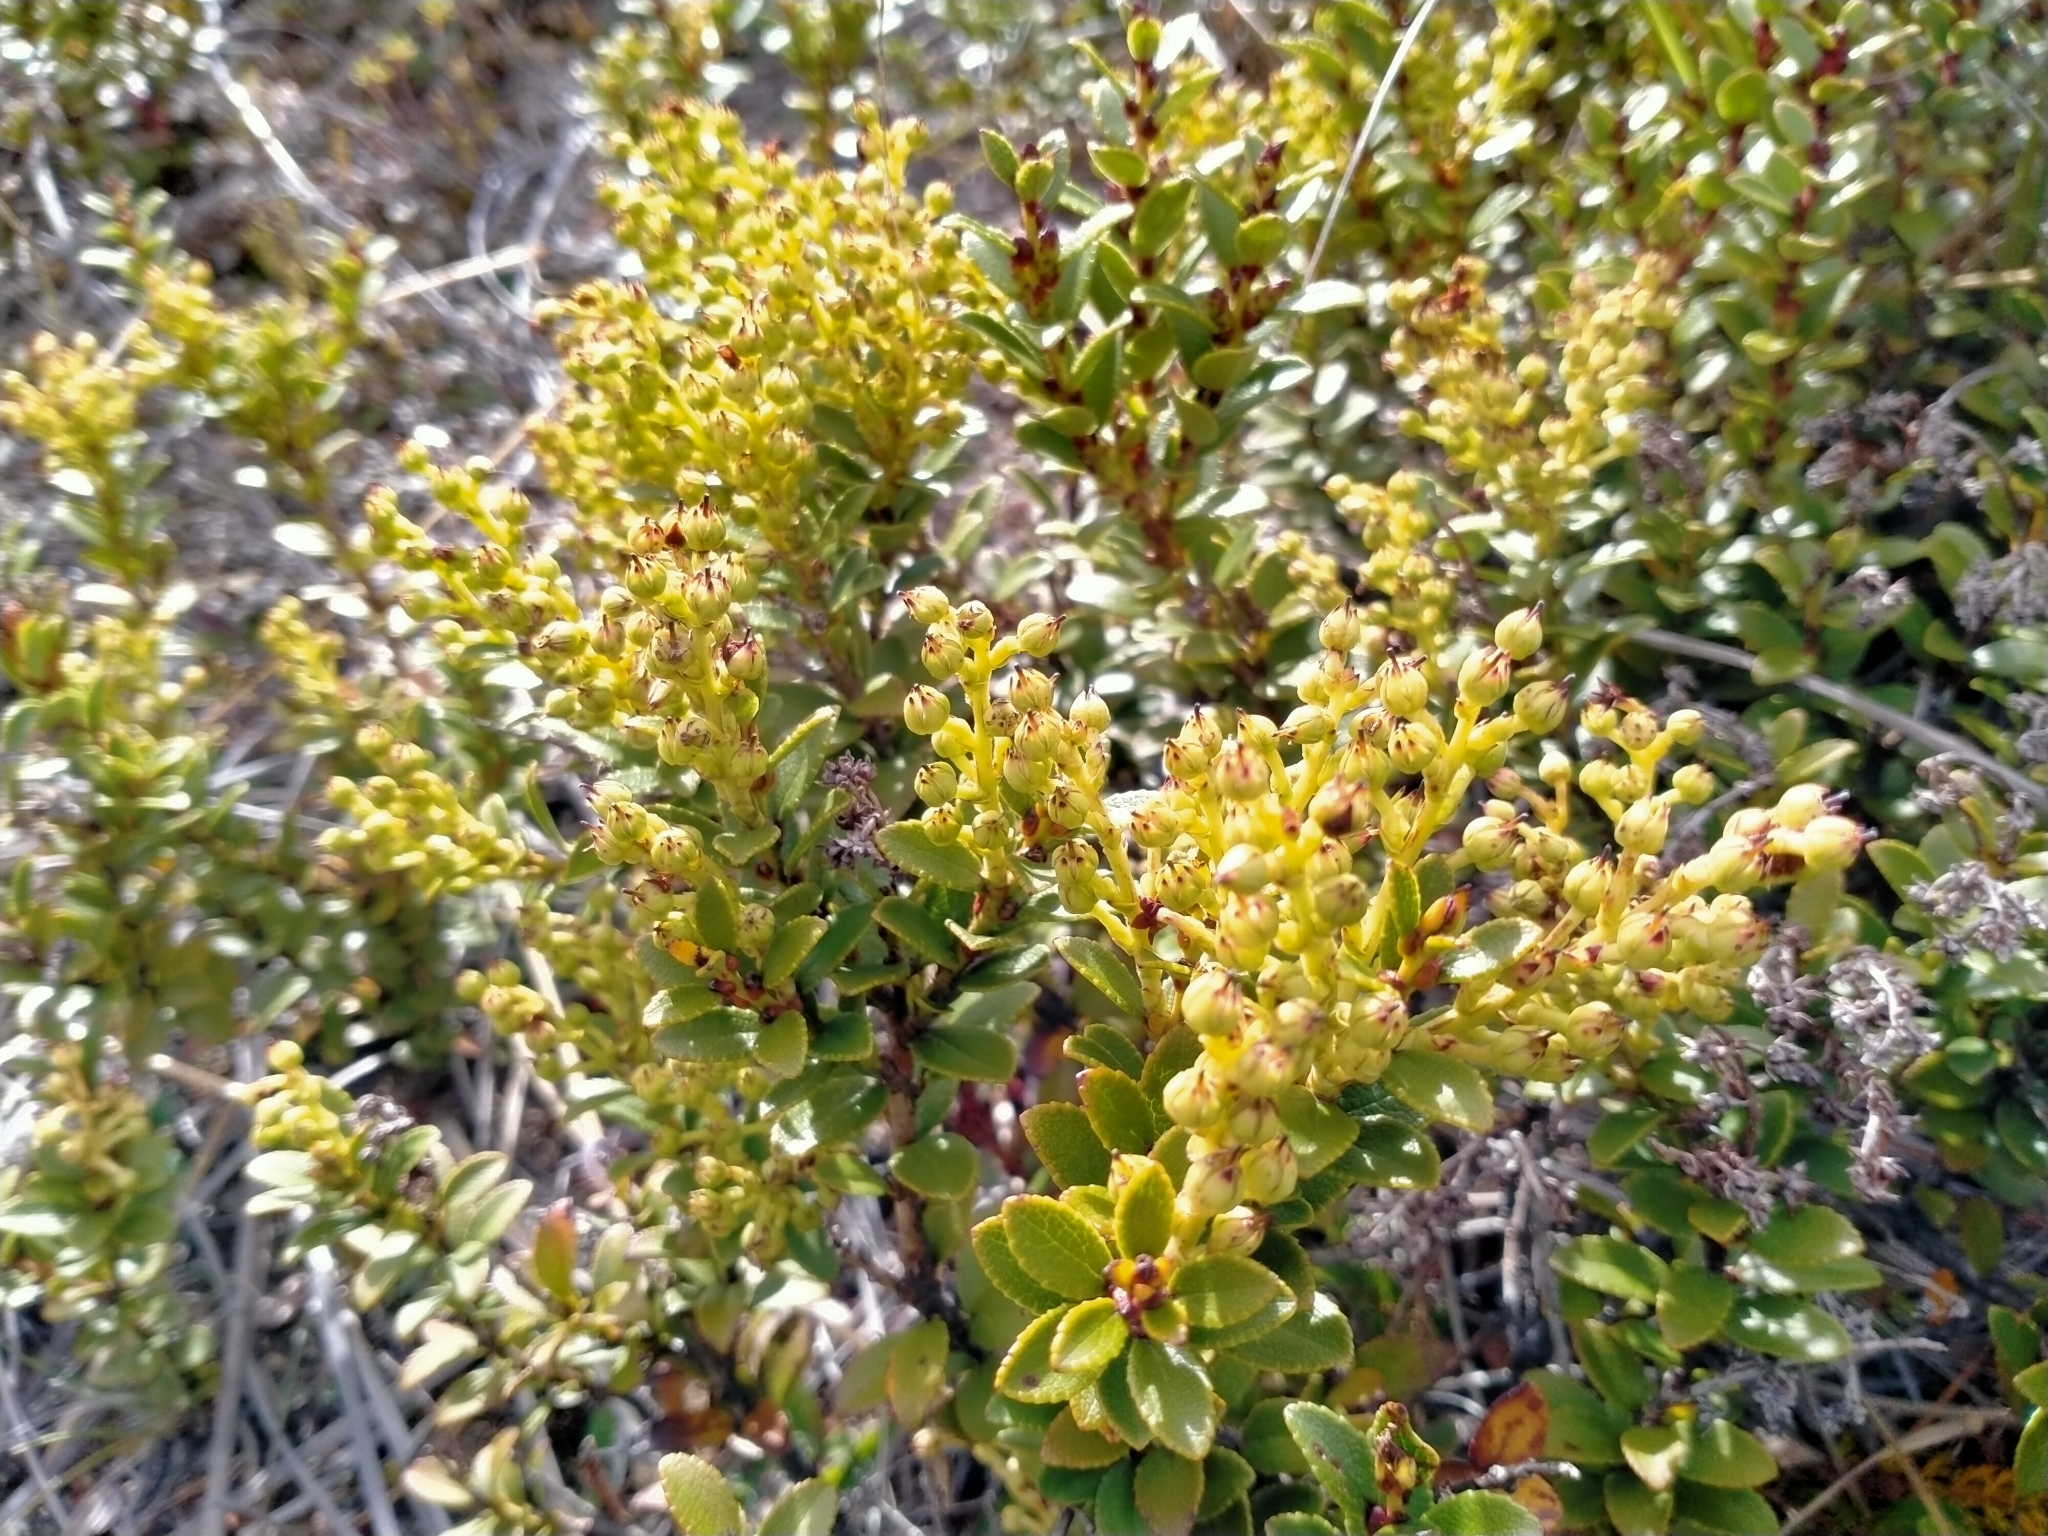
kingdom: Plantae
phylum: Tracheophyta
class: Magnoliopsida
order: Ericales
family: Ericaceae
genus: Gaultheria
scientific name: Gaultheria crassa
